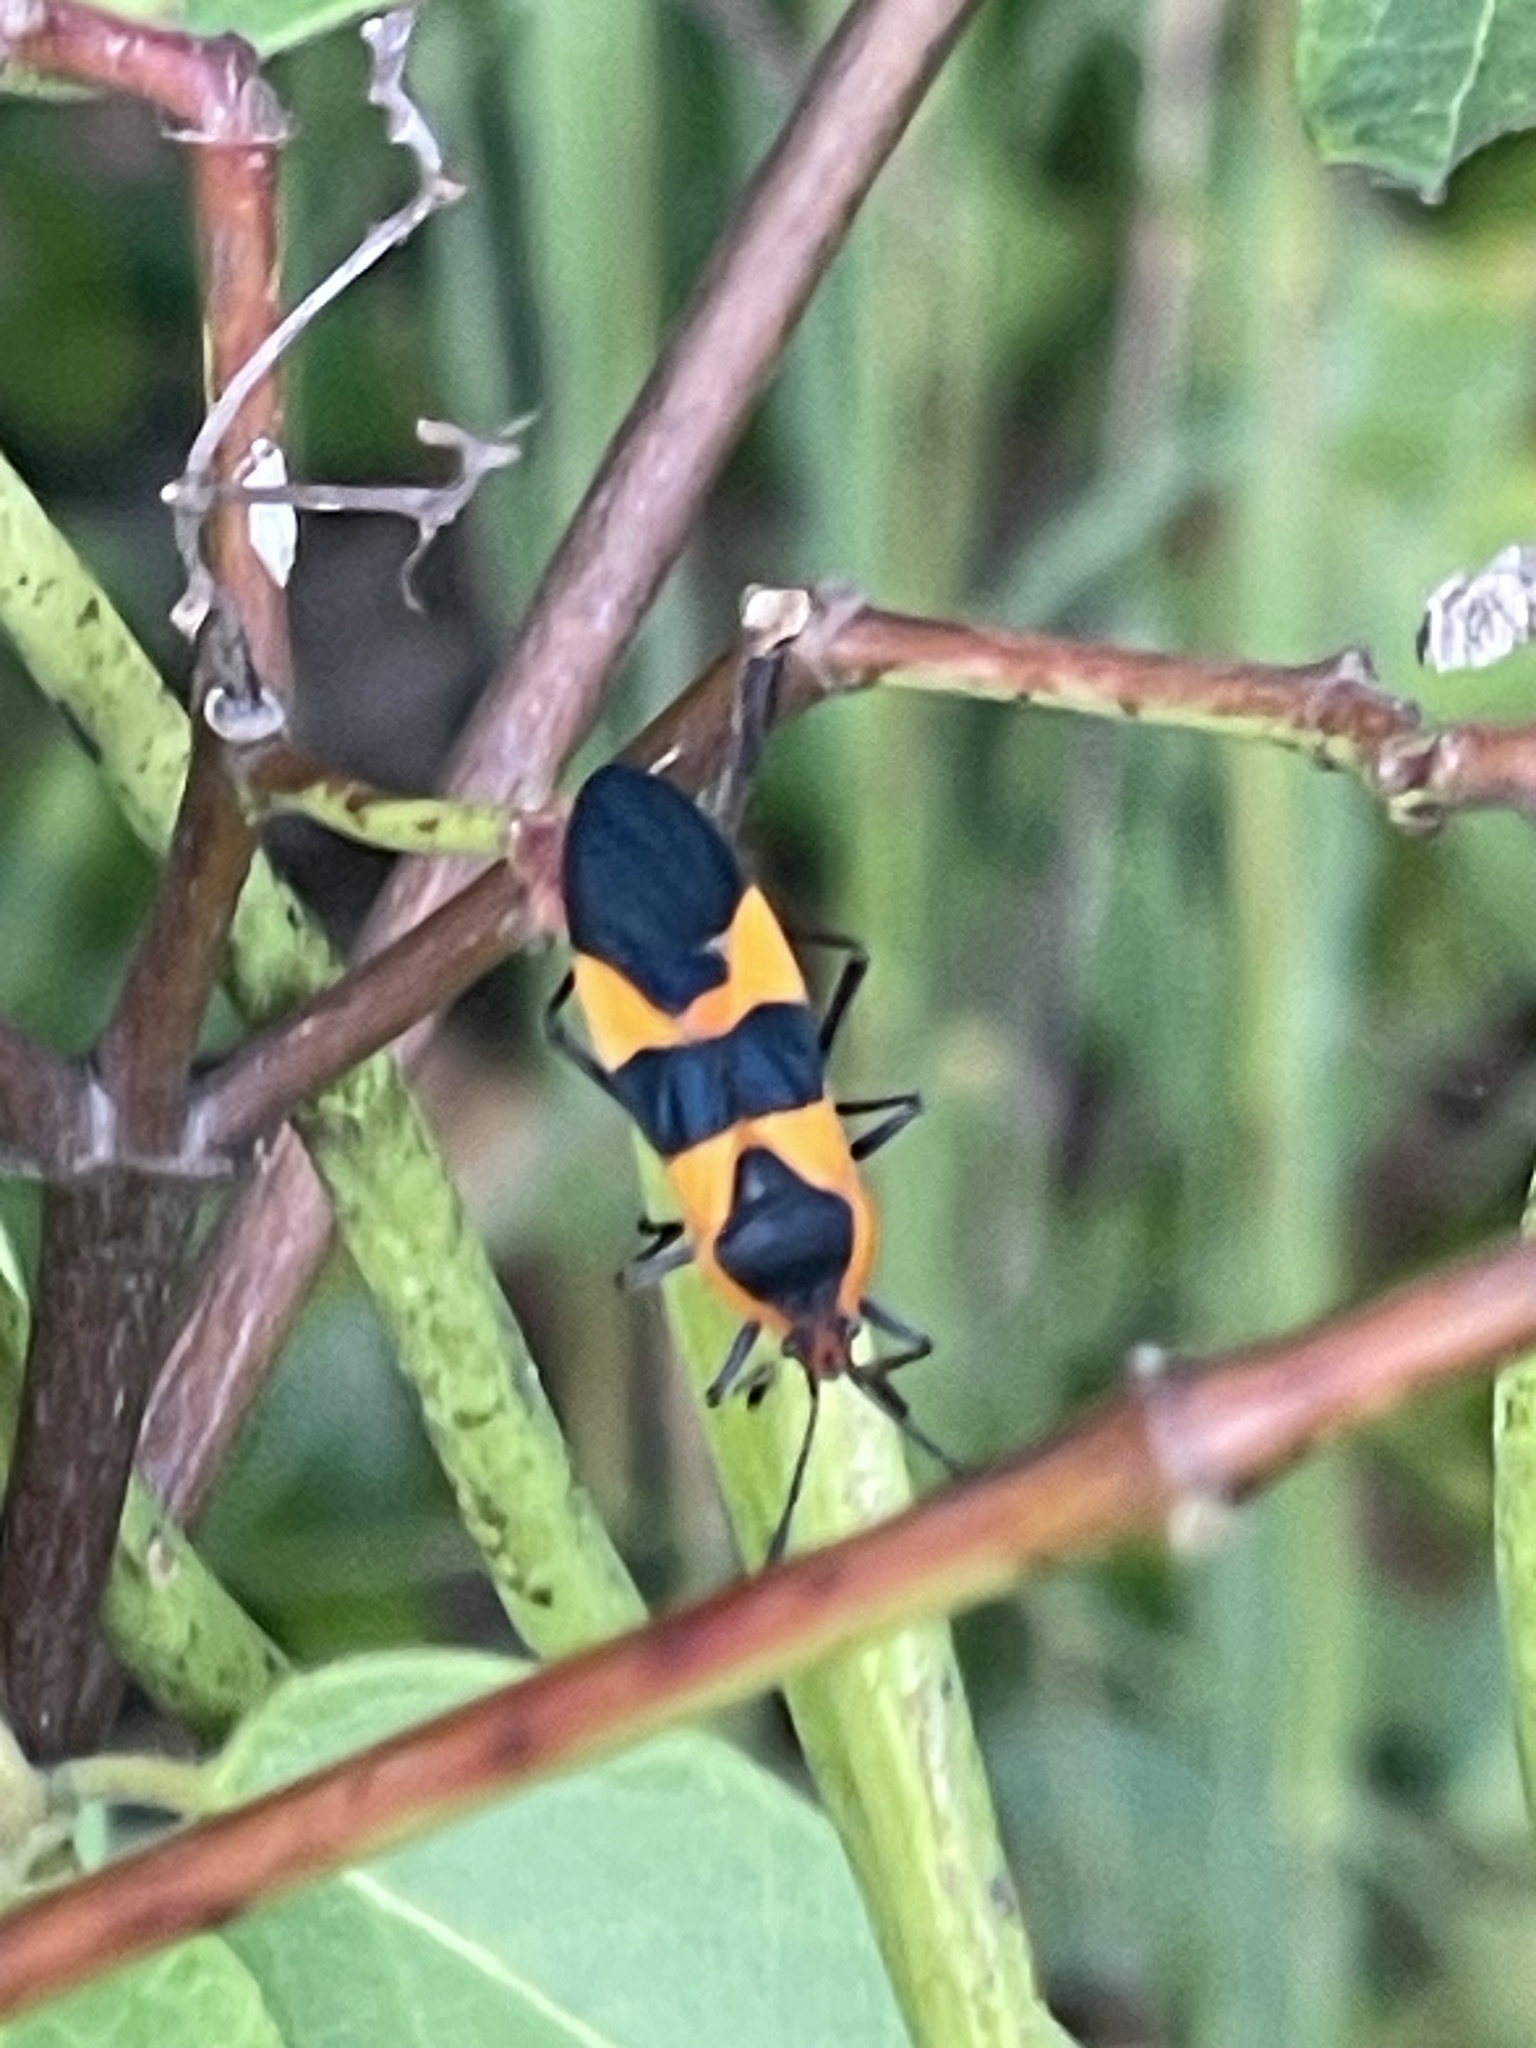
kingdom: Animalia
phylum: Arthropoda
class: Insecta
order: Hemiptera
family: Lygaeidae
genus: Oncopeltus
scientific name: Oncopeltus fasciatus
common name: Large milkweed bug
